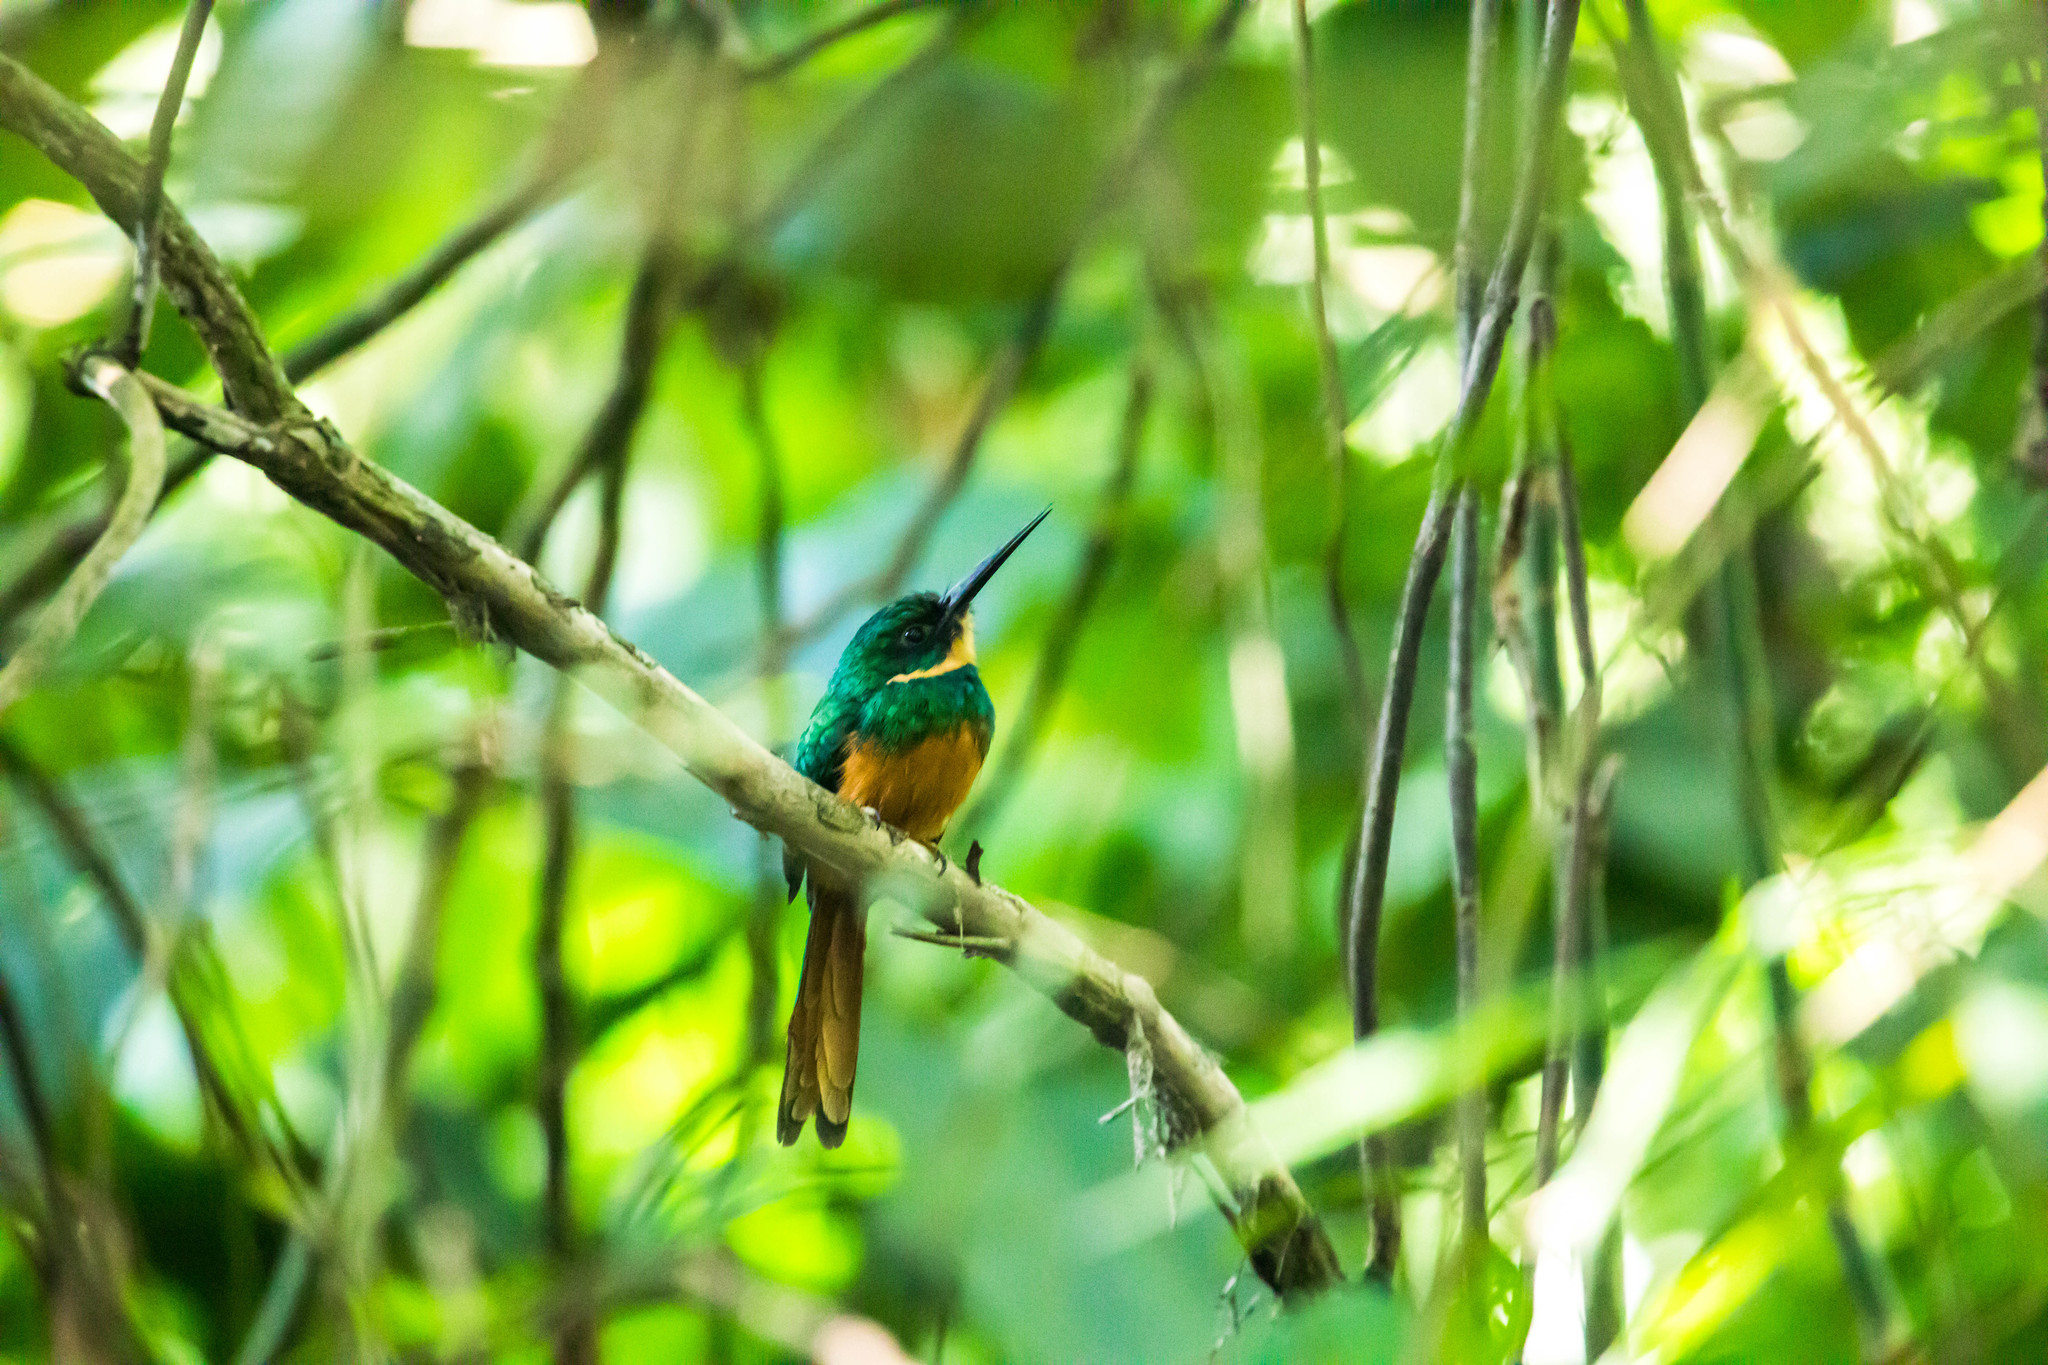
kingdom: Animalia
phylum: Chordata
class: Aves
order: Piciformes
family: Galbulidae
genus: Galbula
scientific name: Galbula ruficauda
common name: Rufous-tailed jacamar
